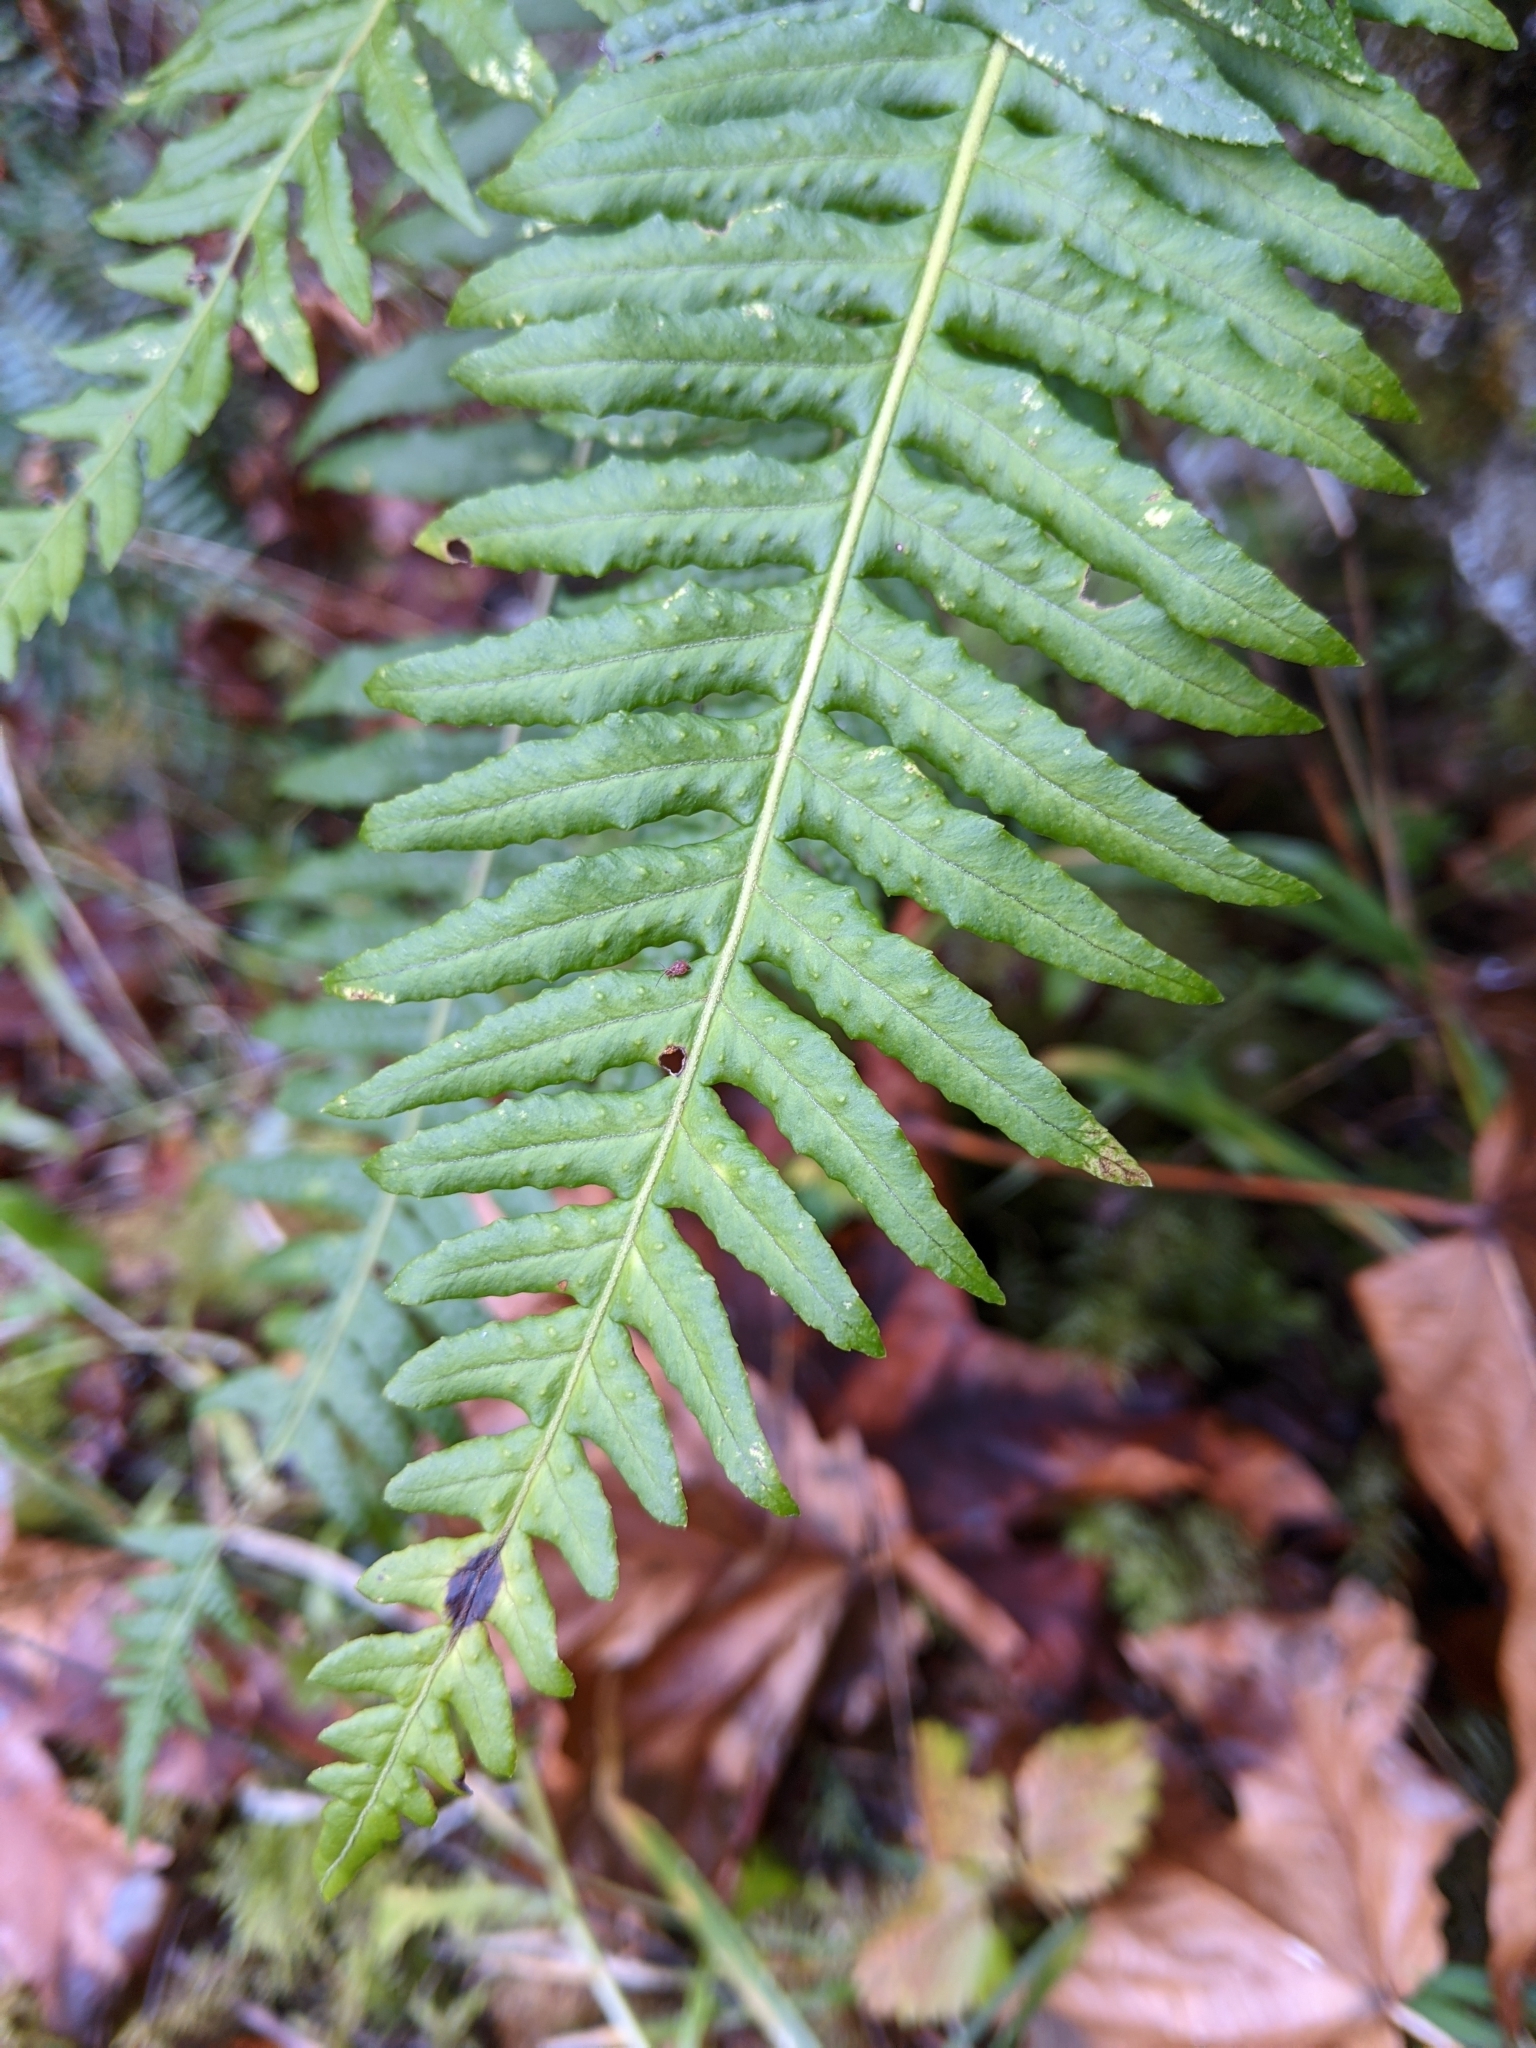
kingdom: Plantae
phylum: Tracheophyta
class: Polypodiopsida
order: Polypodiales
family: Polypodiaceae
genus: Polypodium
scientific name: Polypodium glycyrrhiza
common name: Licorice fern
